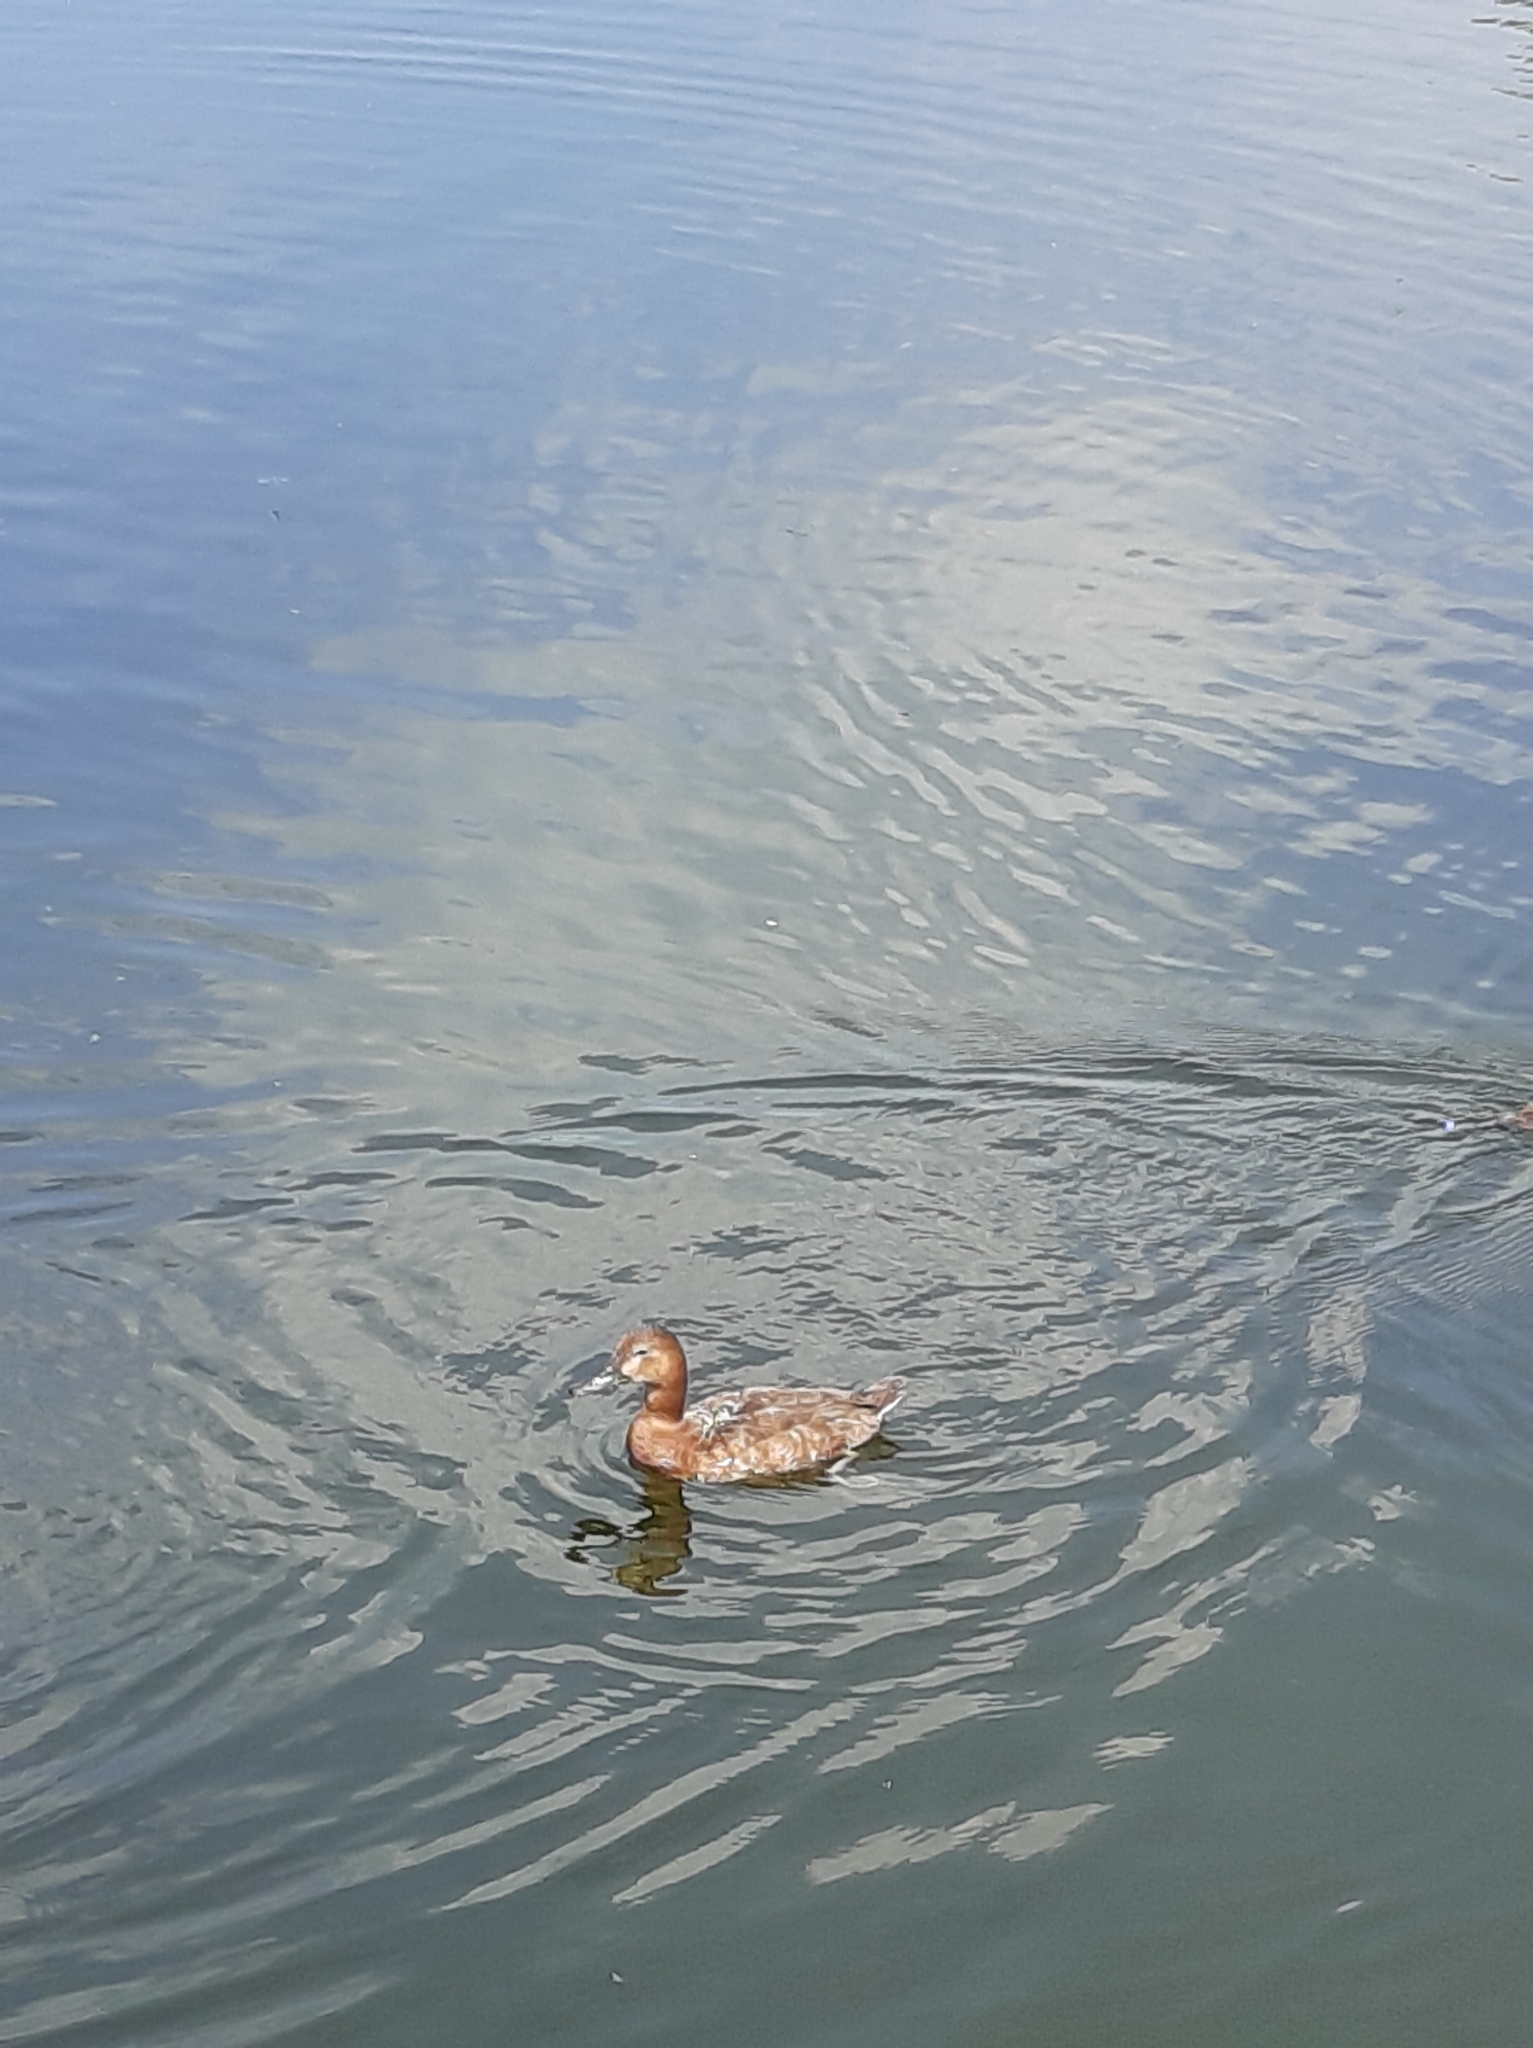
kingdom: Animalia
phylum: Chordata
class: Aves
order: Anseriformes
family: Anatidae
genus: Aythya
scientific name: Aythya ferina
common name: Common pochard
